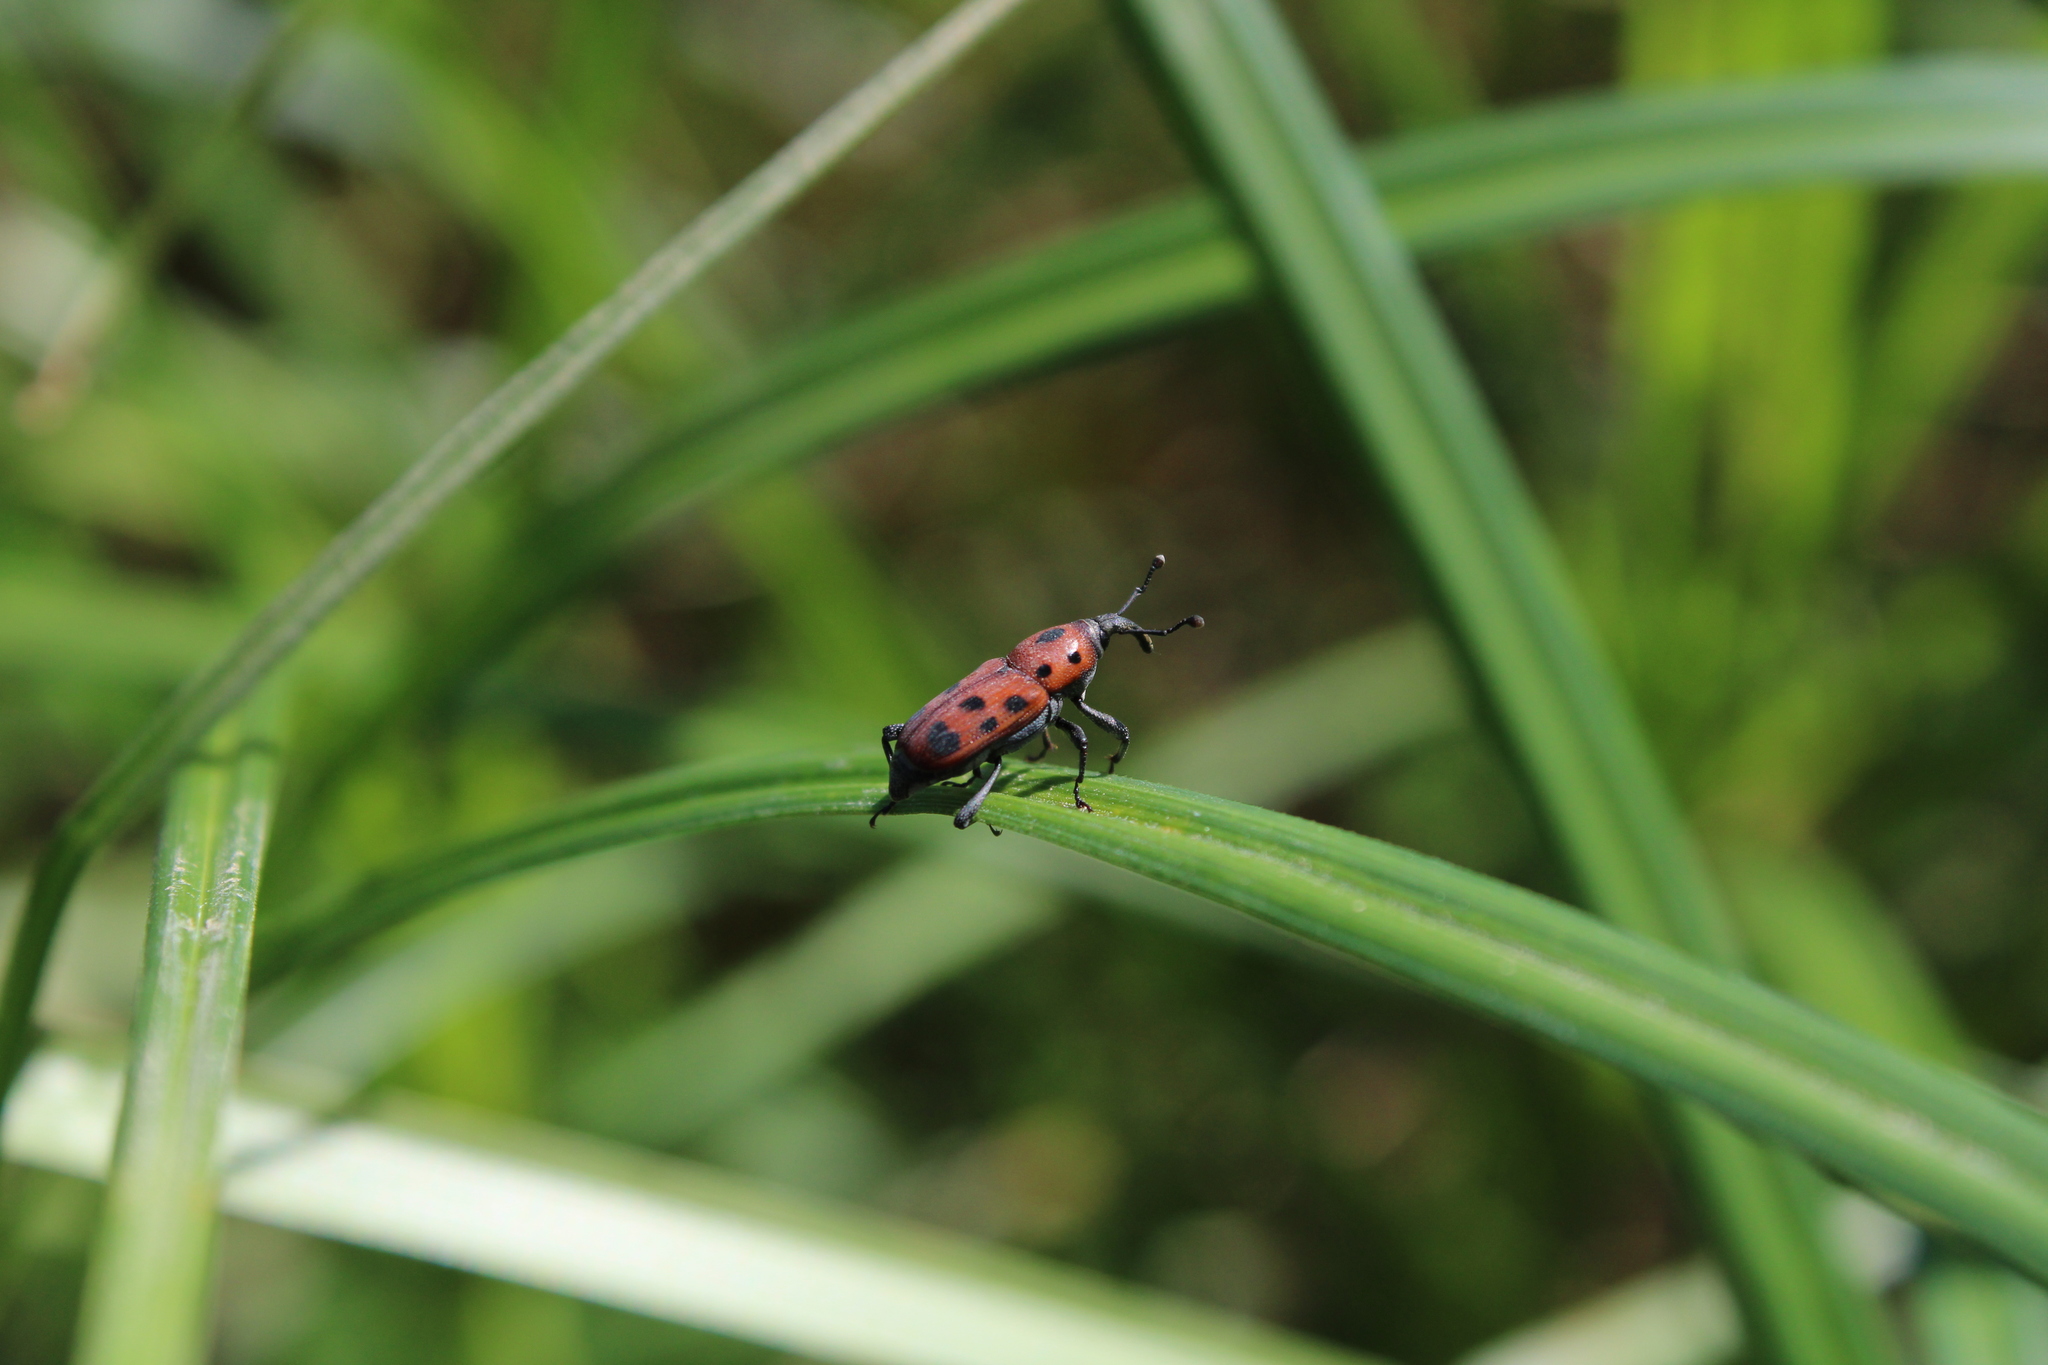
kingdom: Animalia
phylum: Arthropoda
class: Insecta
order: Coleoptera
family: Dryophthoridae
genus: Rhodobaenus
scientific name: Rhodobaenus tredecimpunctatus
